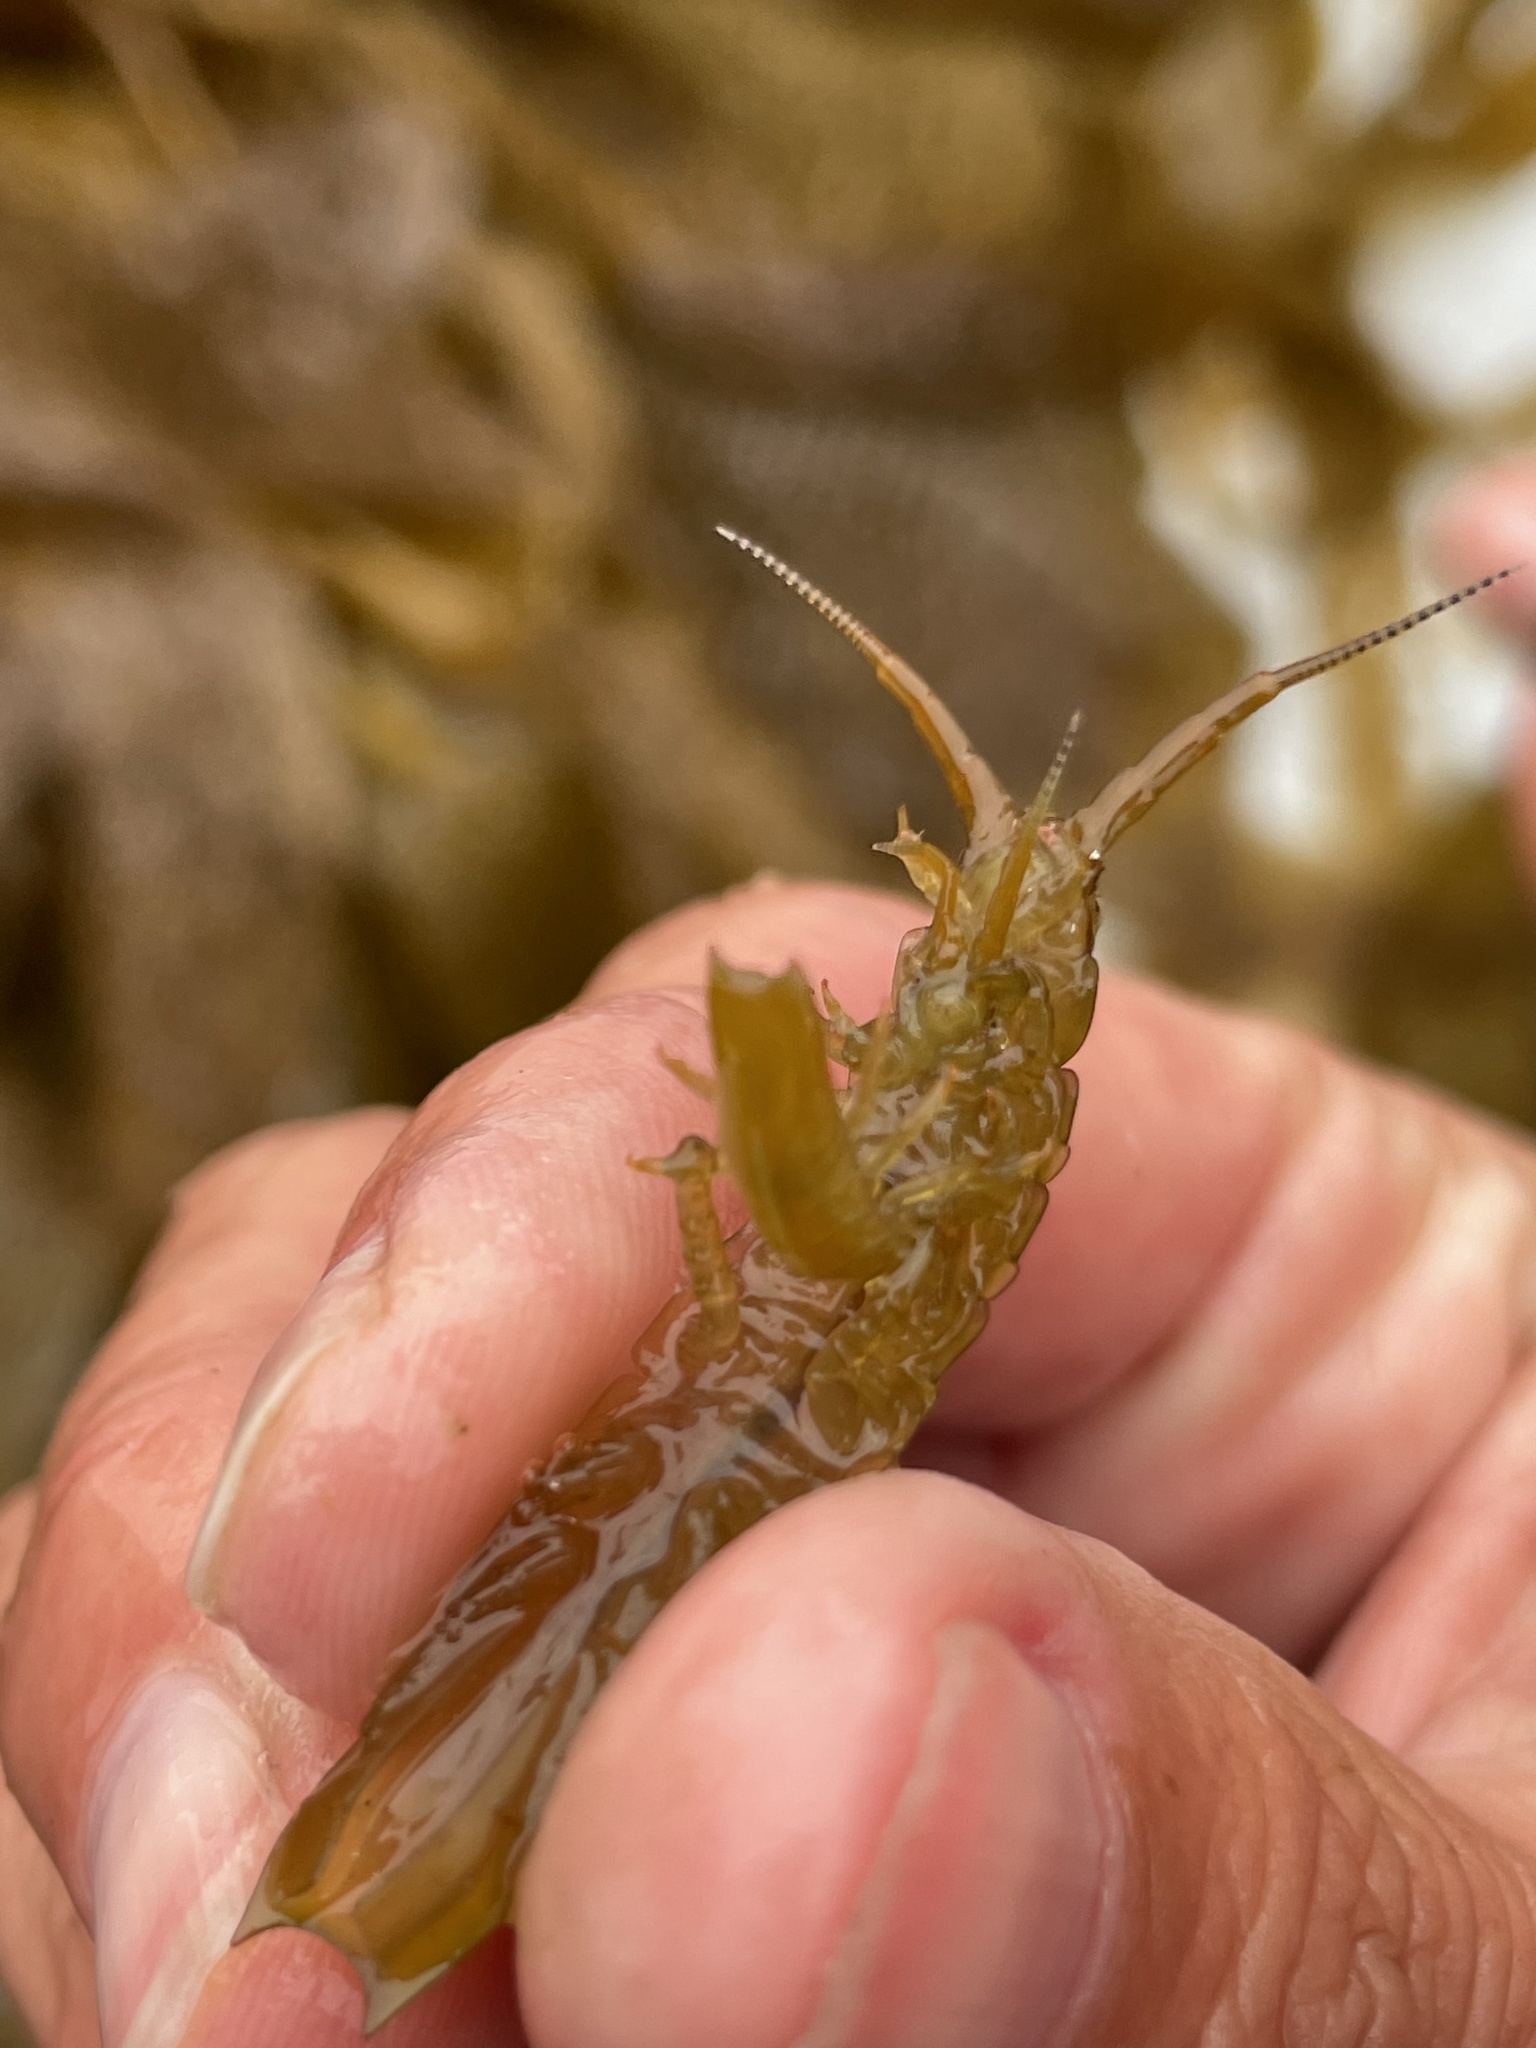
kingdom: Animalia
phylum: Arthropoda
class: Malacostraca
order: Isopoda
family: Idoteidae
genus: Pentidotea
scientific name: Pentidotea resecata
